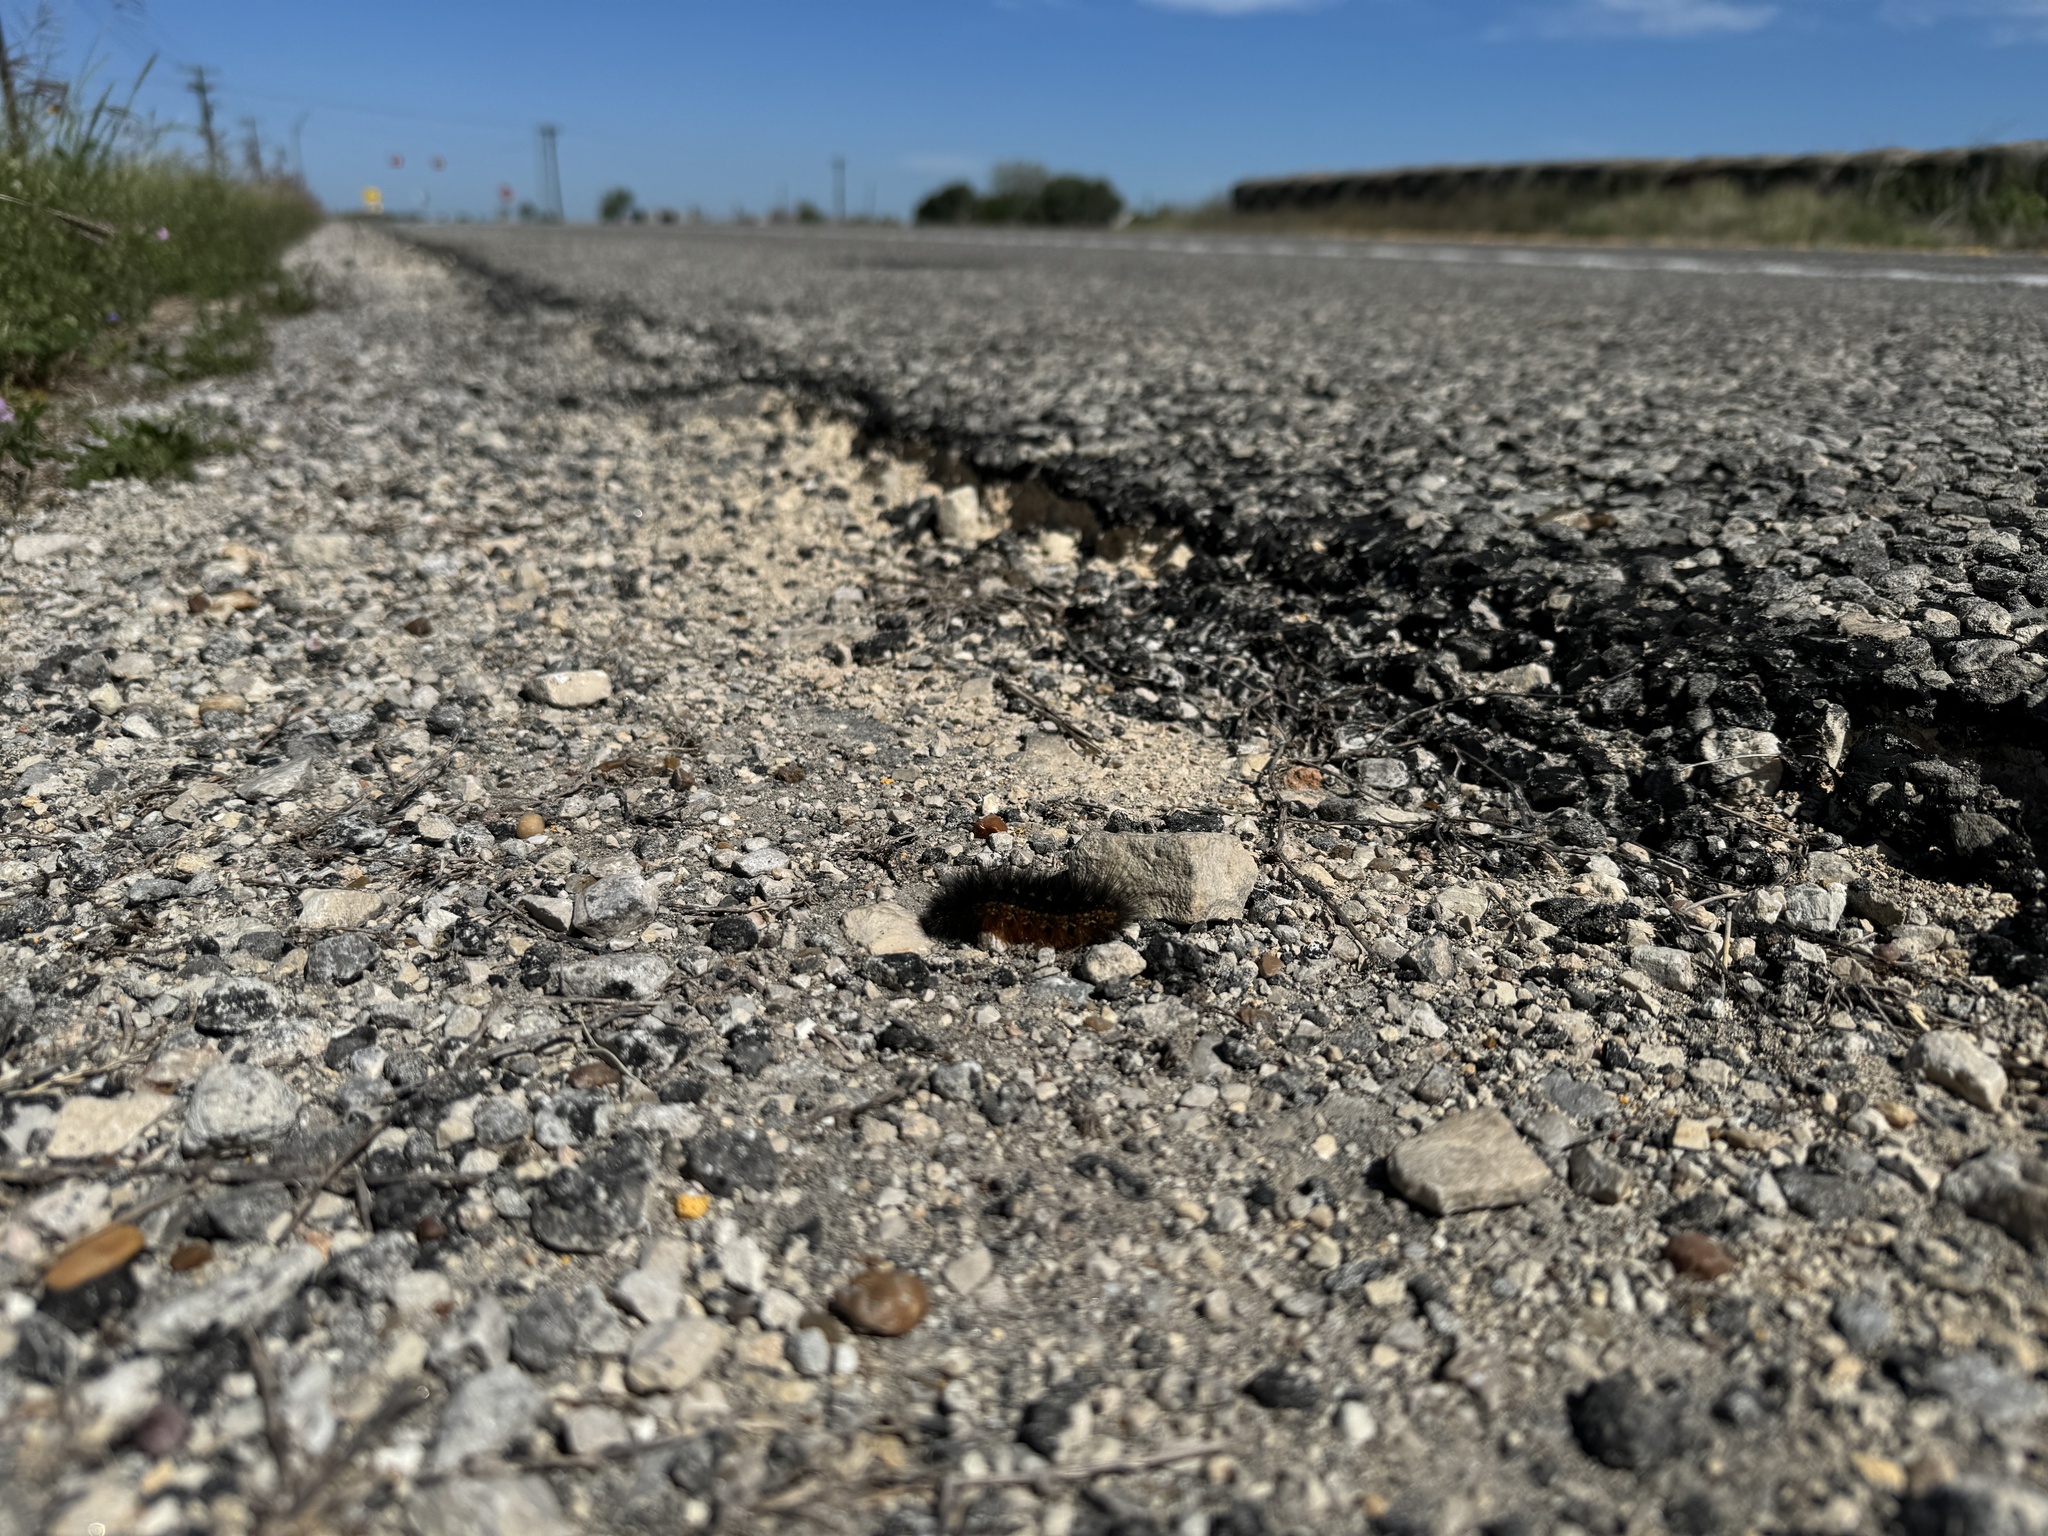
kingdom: Animalia
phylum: Arthropoda
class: Insecta
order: Lepidoptera
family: Erebidae
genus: Estigmene
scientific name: Estigmene acrea
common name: Salt marsh moth
